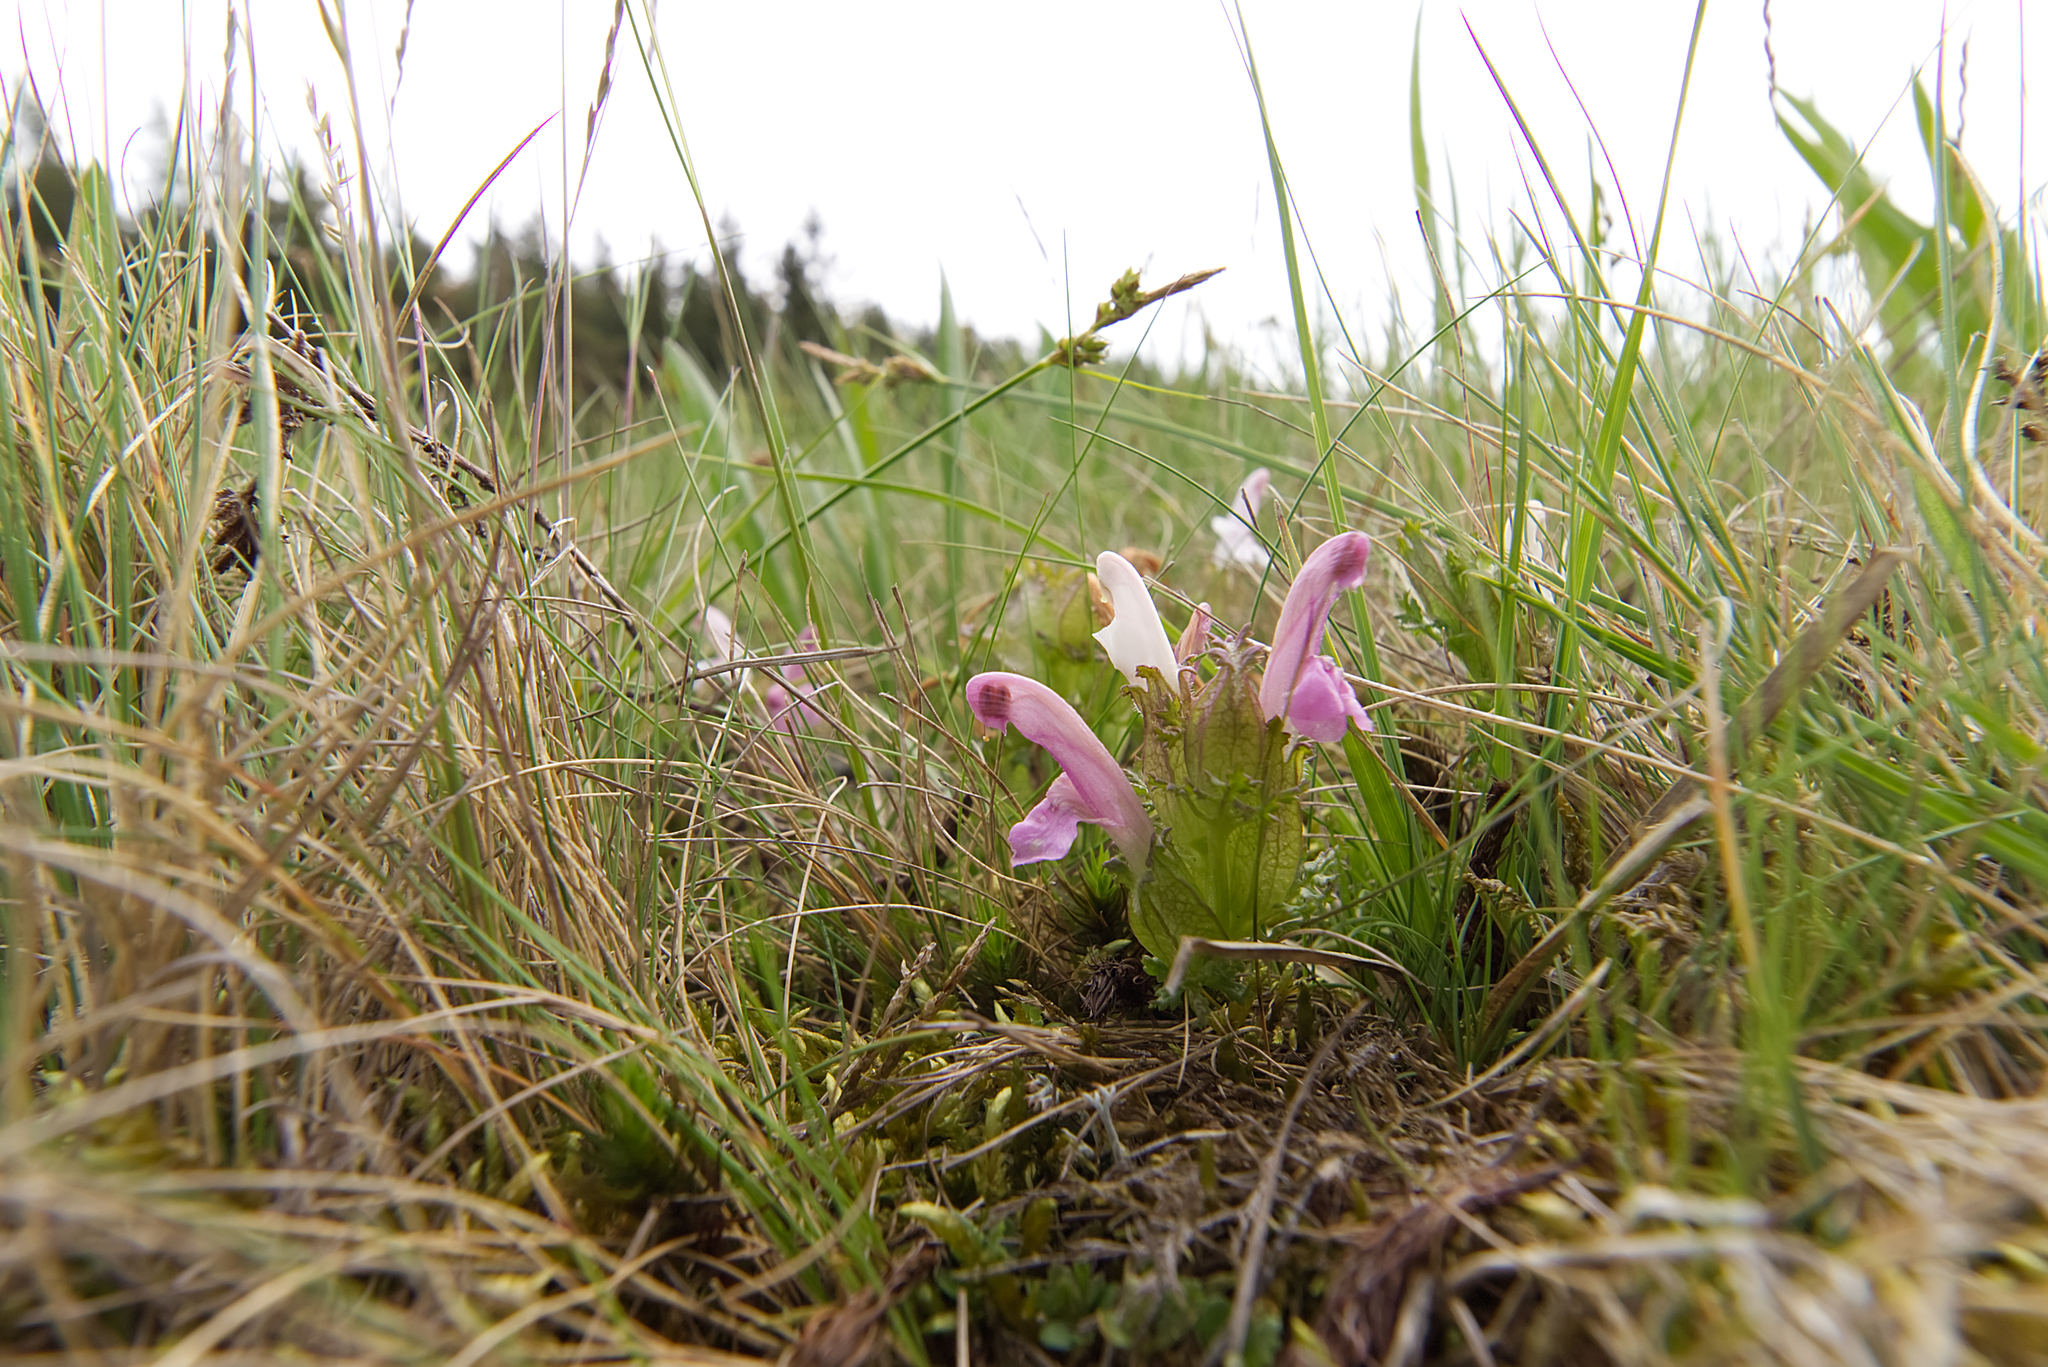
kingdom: Plantae
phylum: Tracheophyta
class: Magnoliopsida
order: Lamiales
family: Orobanchaceae
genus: Pedicularis
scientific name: Pedicularis sylvatica
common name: Lousewort
